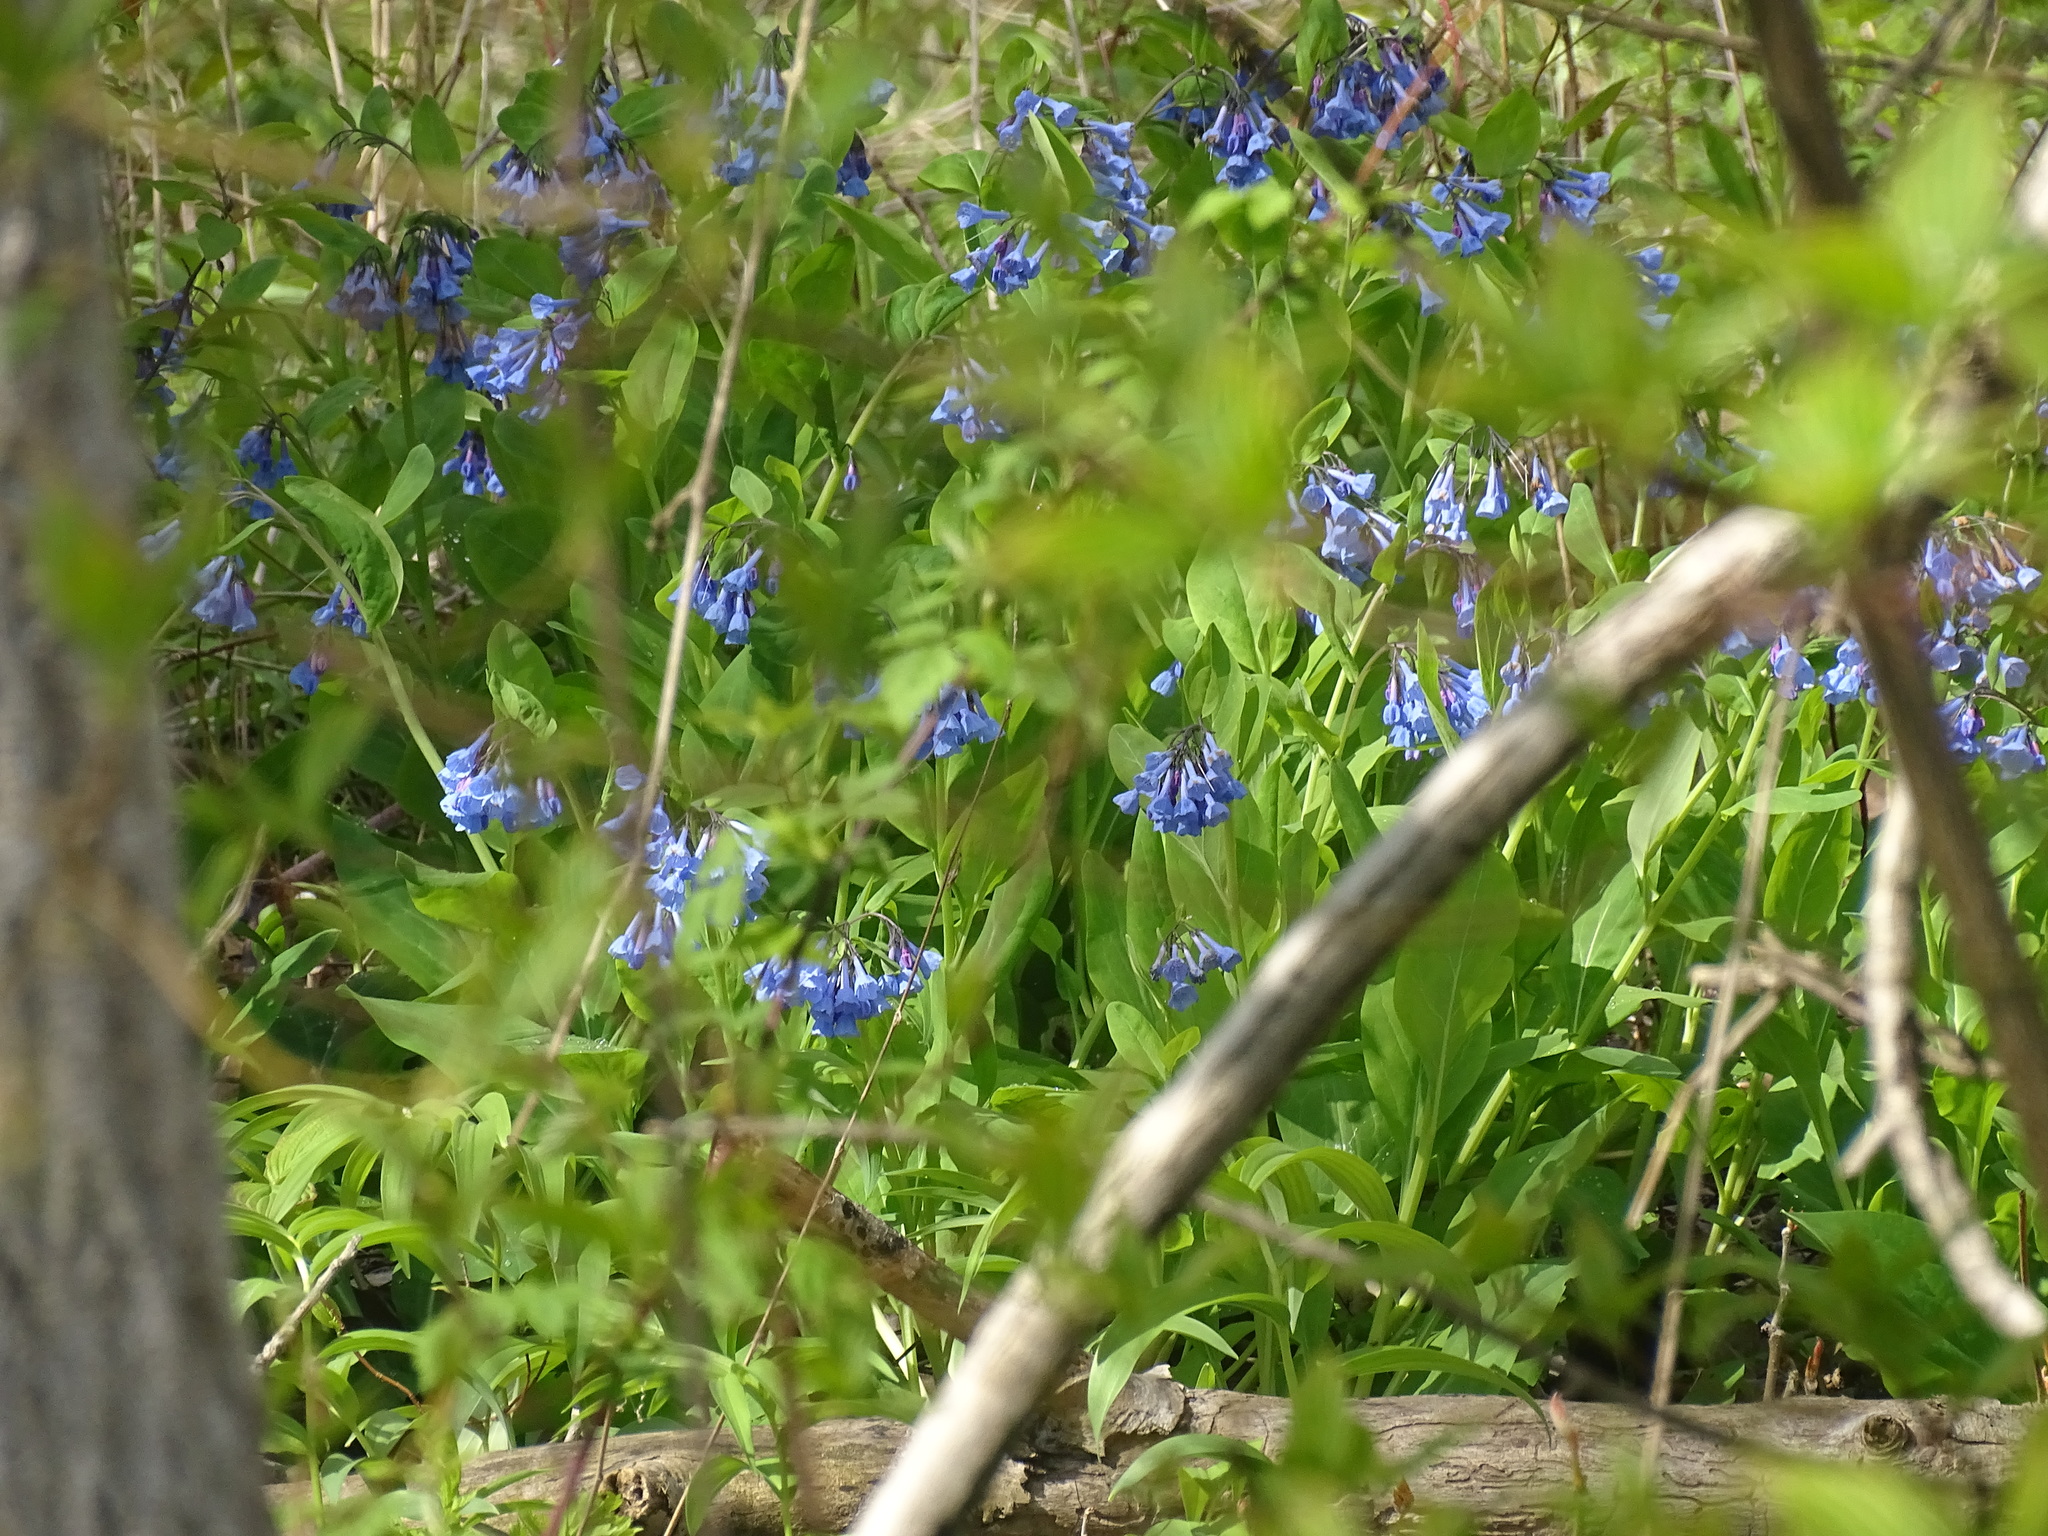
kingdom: Plantae
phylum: Tracheophyta
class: Magnoliopsida
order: Boraginales
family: Boraginaceae
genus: Mertensia
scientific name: Mertensia virginica
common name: Virginia bluebells
